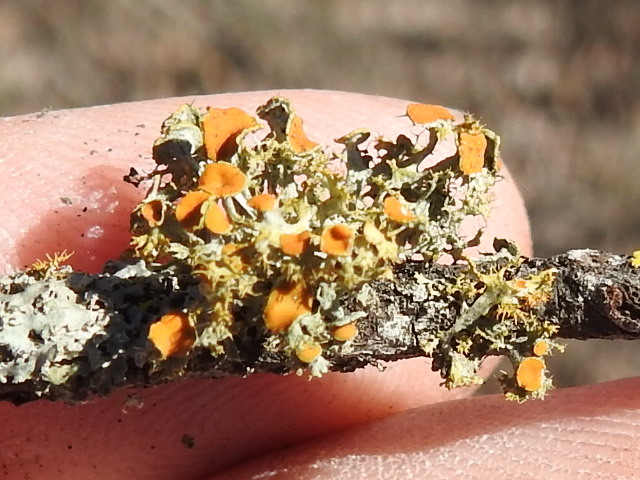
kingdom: Fungi
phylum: Ascomycota
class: Lecanoromycetes
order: Teloschistales
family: Teloschistaceae
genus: Niorma
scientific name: Niorma chrysophthalma
